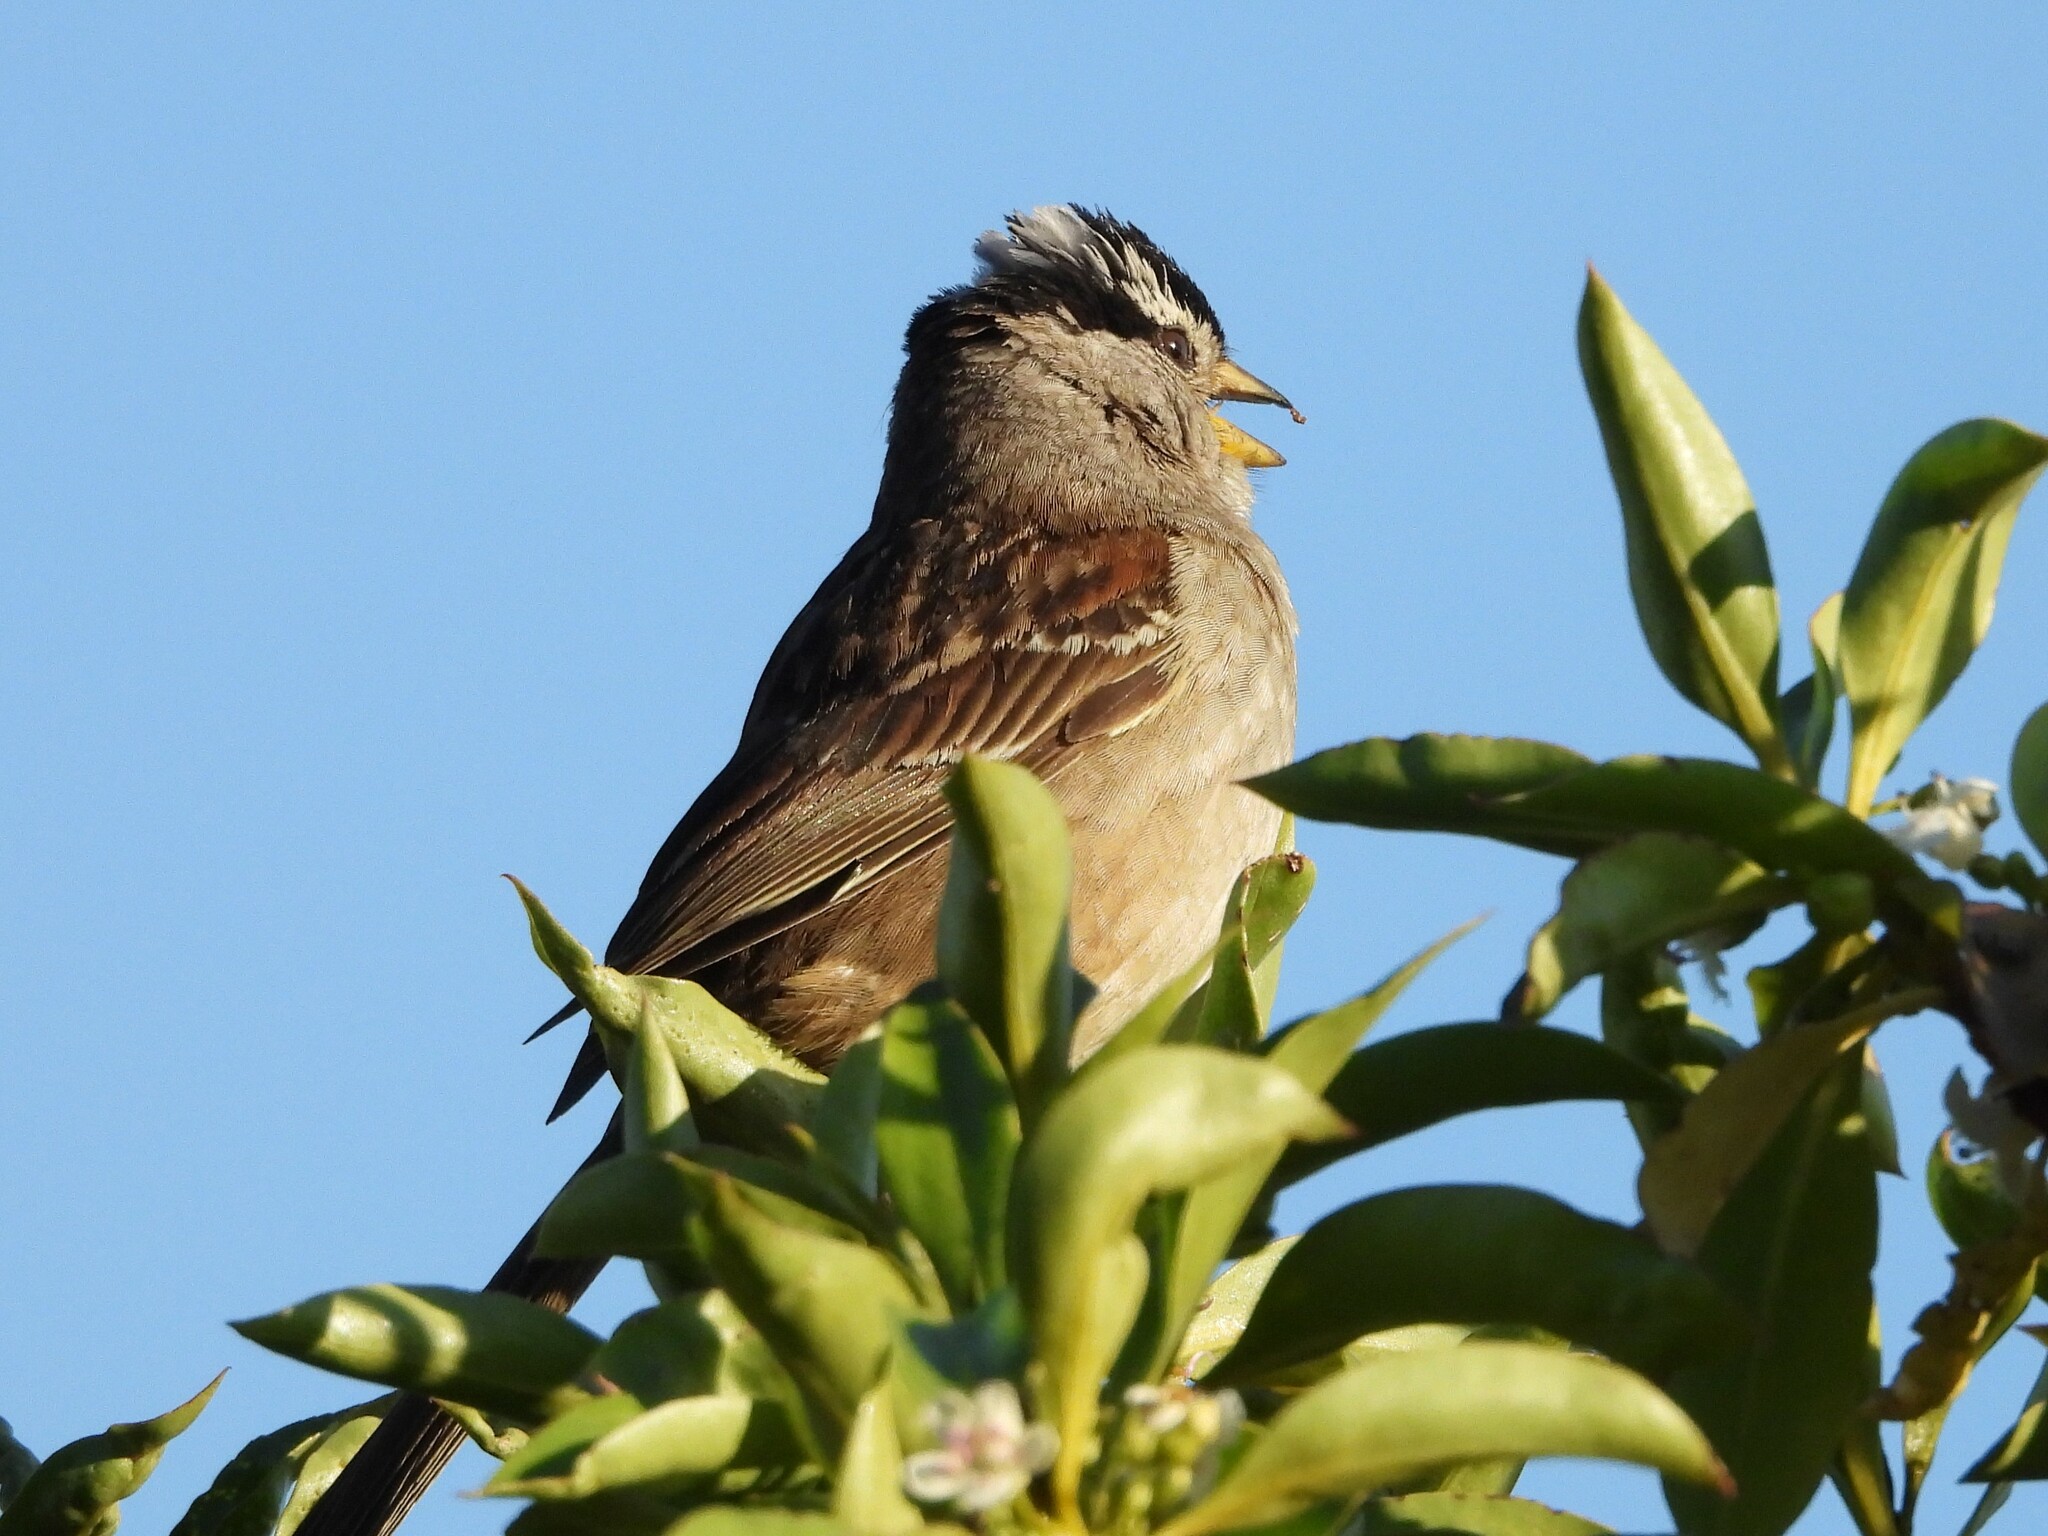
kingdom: Animalia
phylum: Chordata
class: Aves
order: Passeriformes
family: Passerellidae
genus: Zonotrichia
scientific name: Zonotrichia leucophrys
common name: White-crowned sparrow
